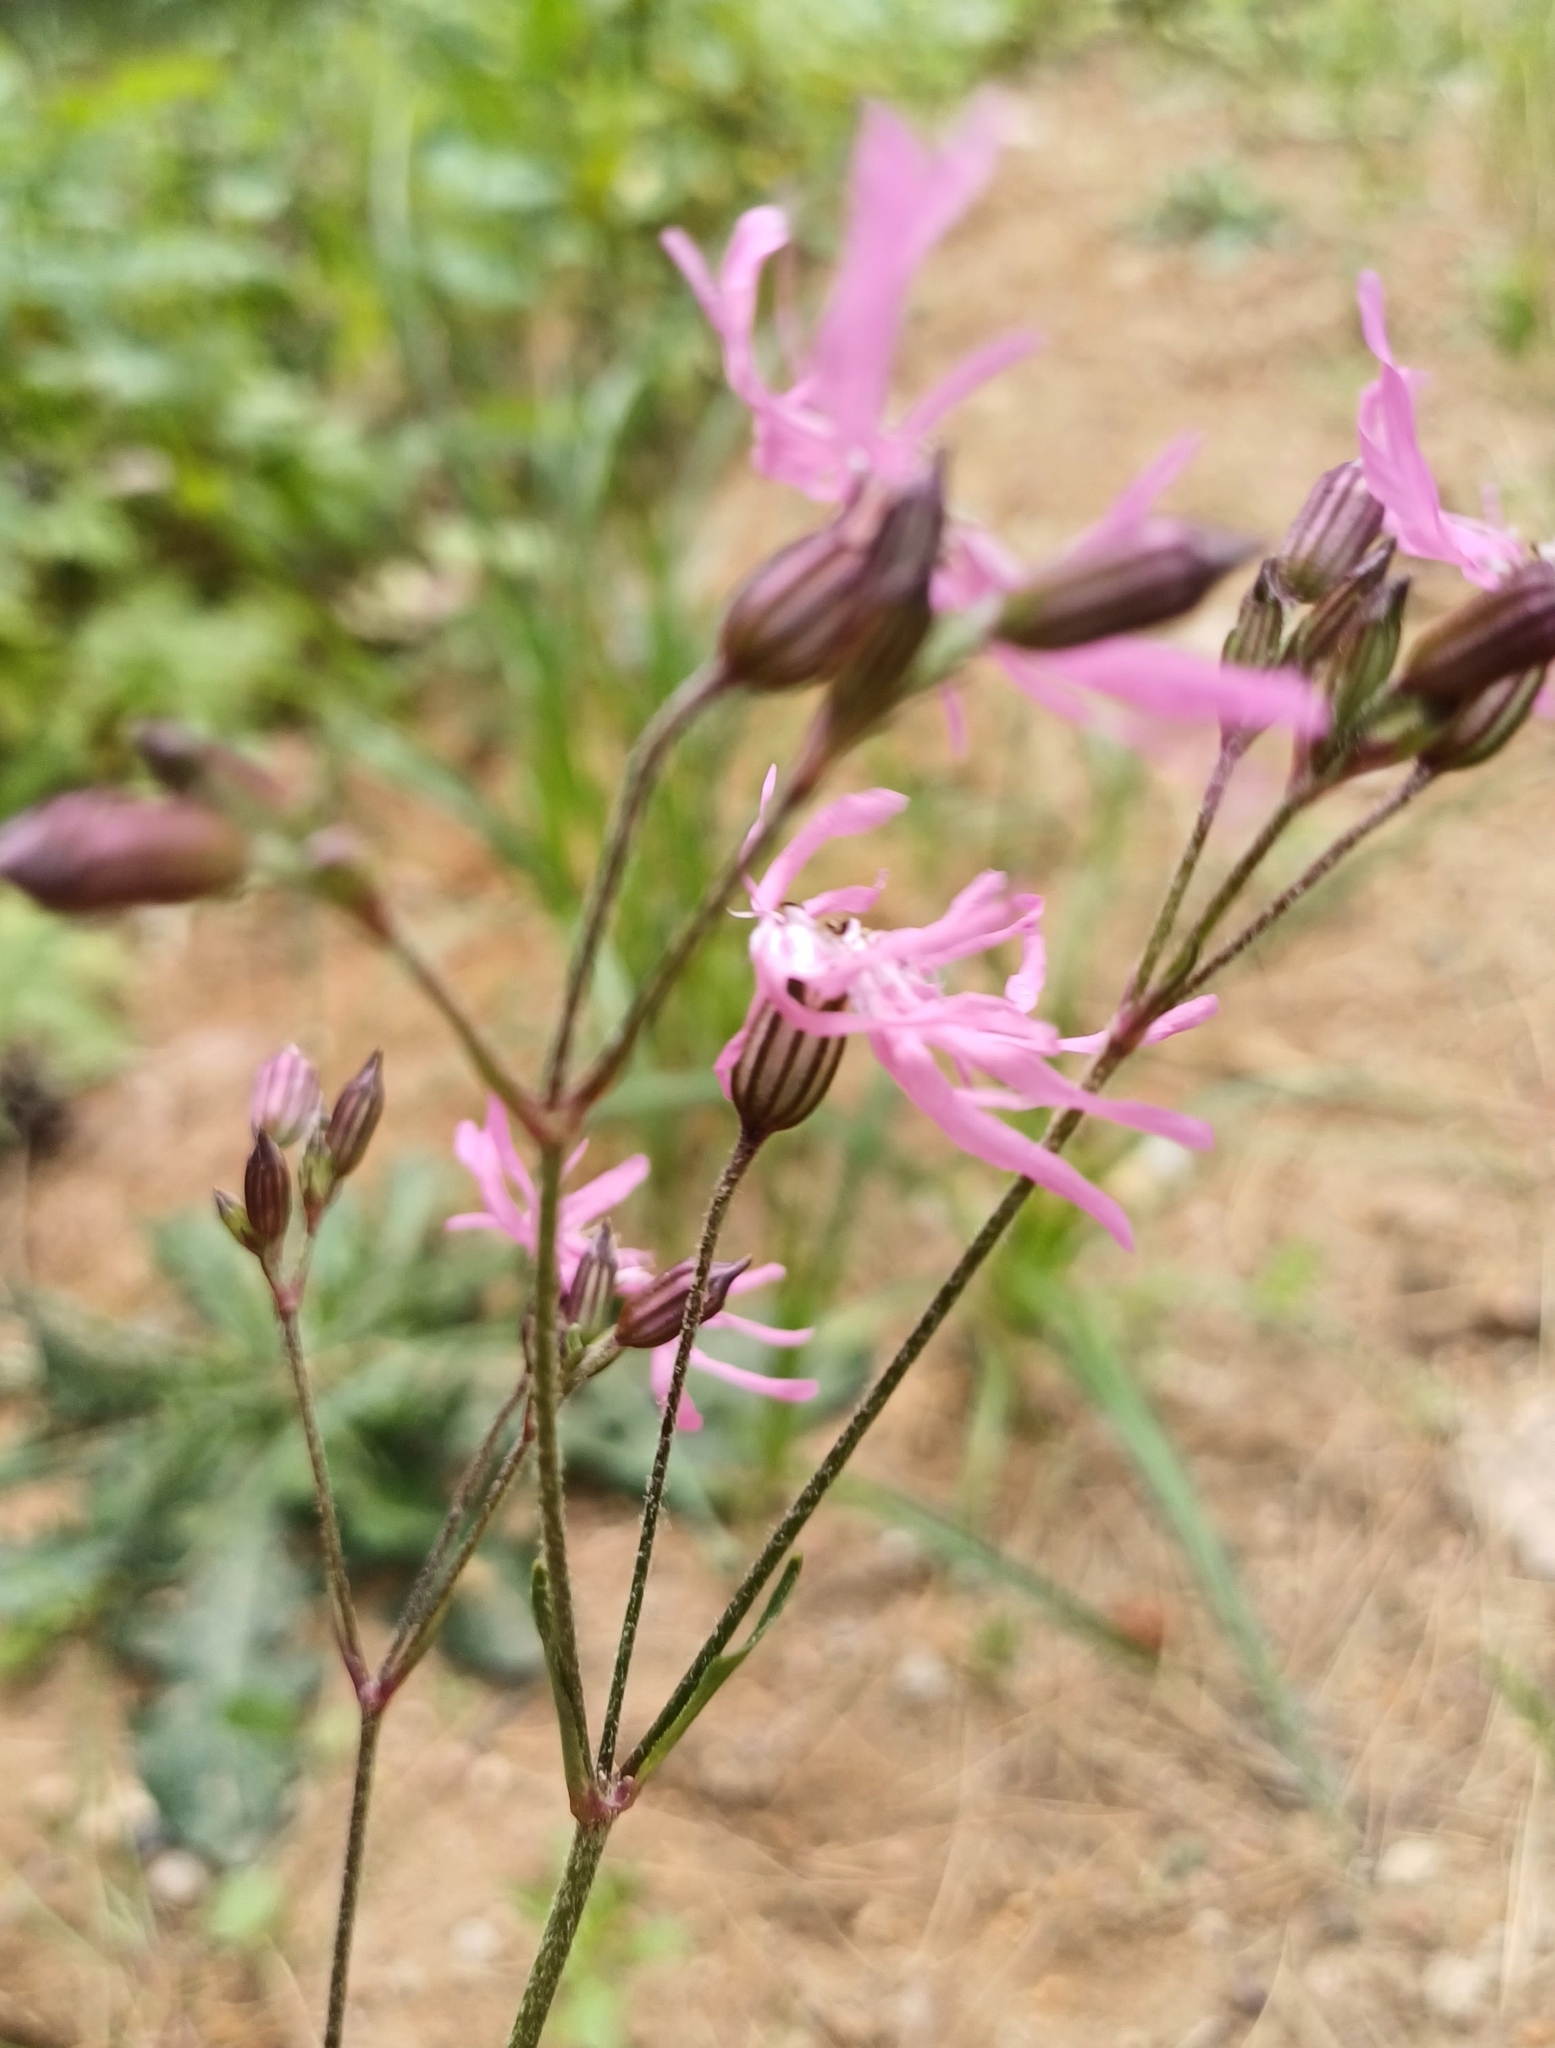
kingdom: Plantae
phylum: Tracheophyta
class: Magnoliopsida
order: Caryophyllales
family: Caryophyllaceae
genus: Silene
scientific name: Silene flos-cuculi
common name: Ragged-robin
